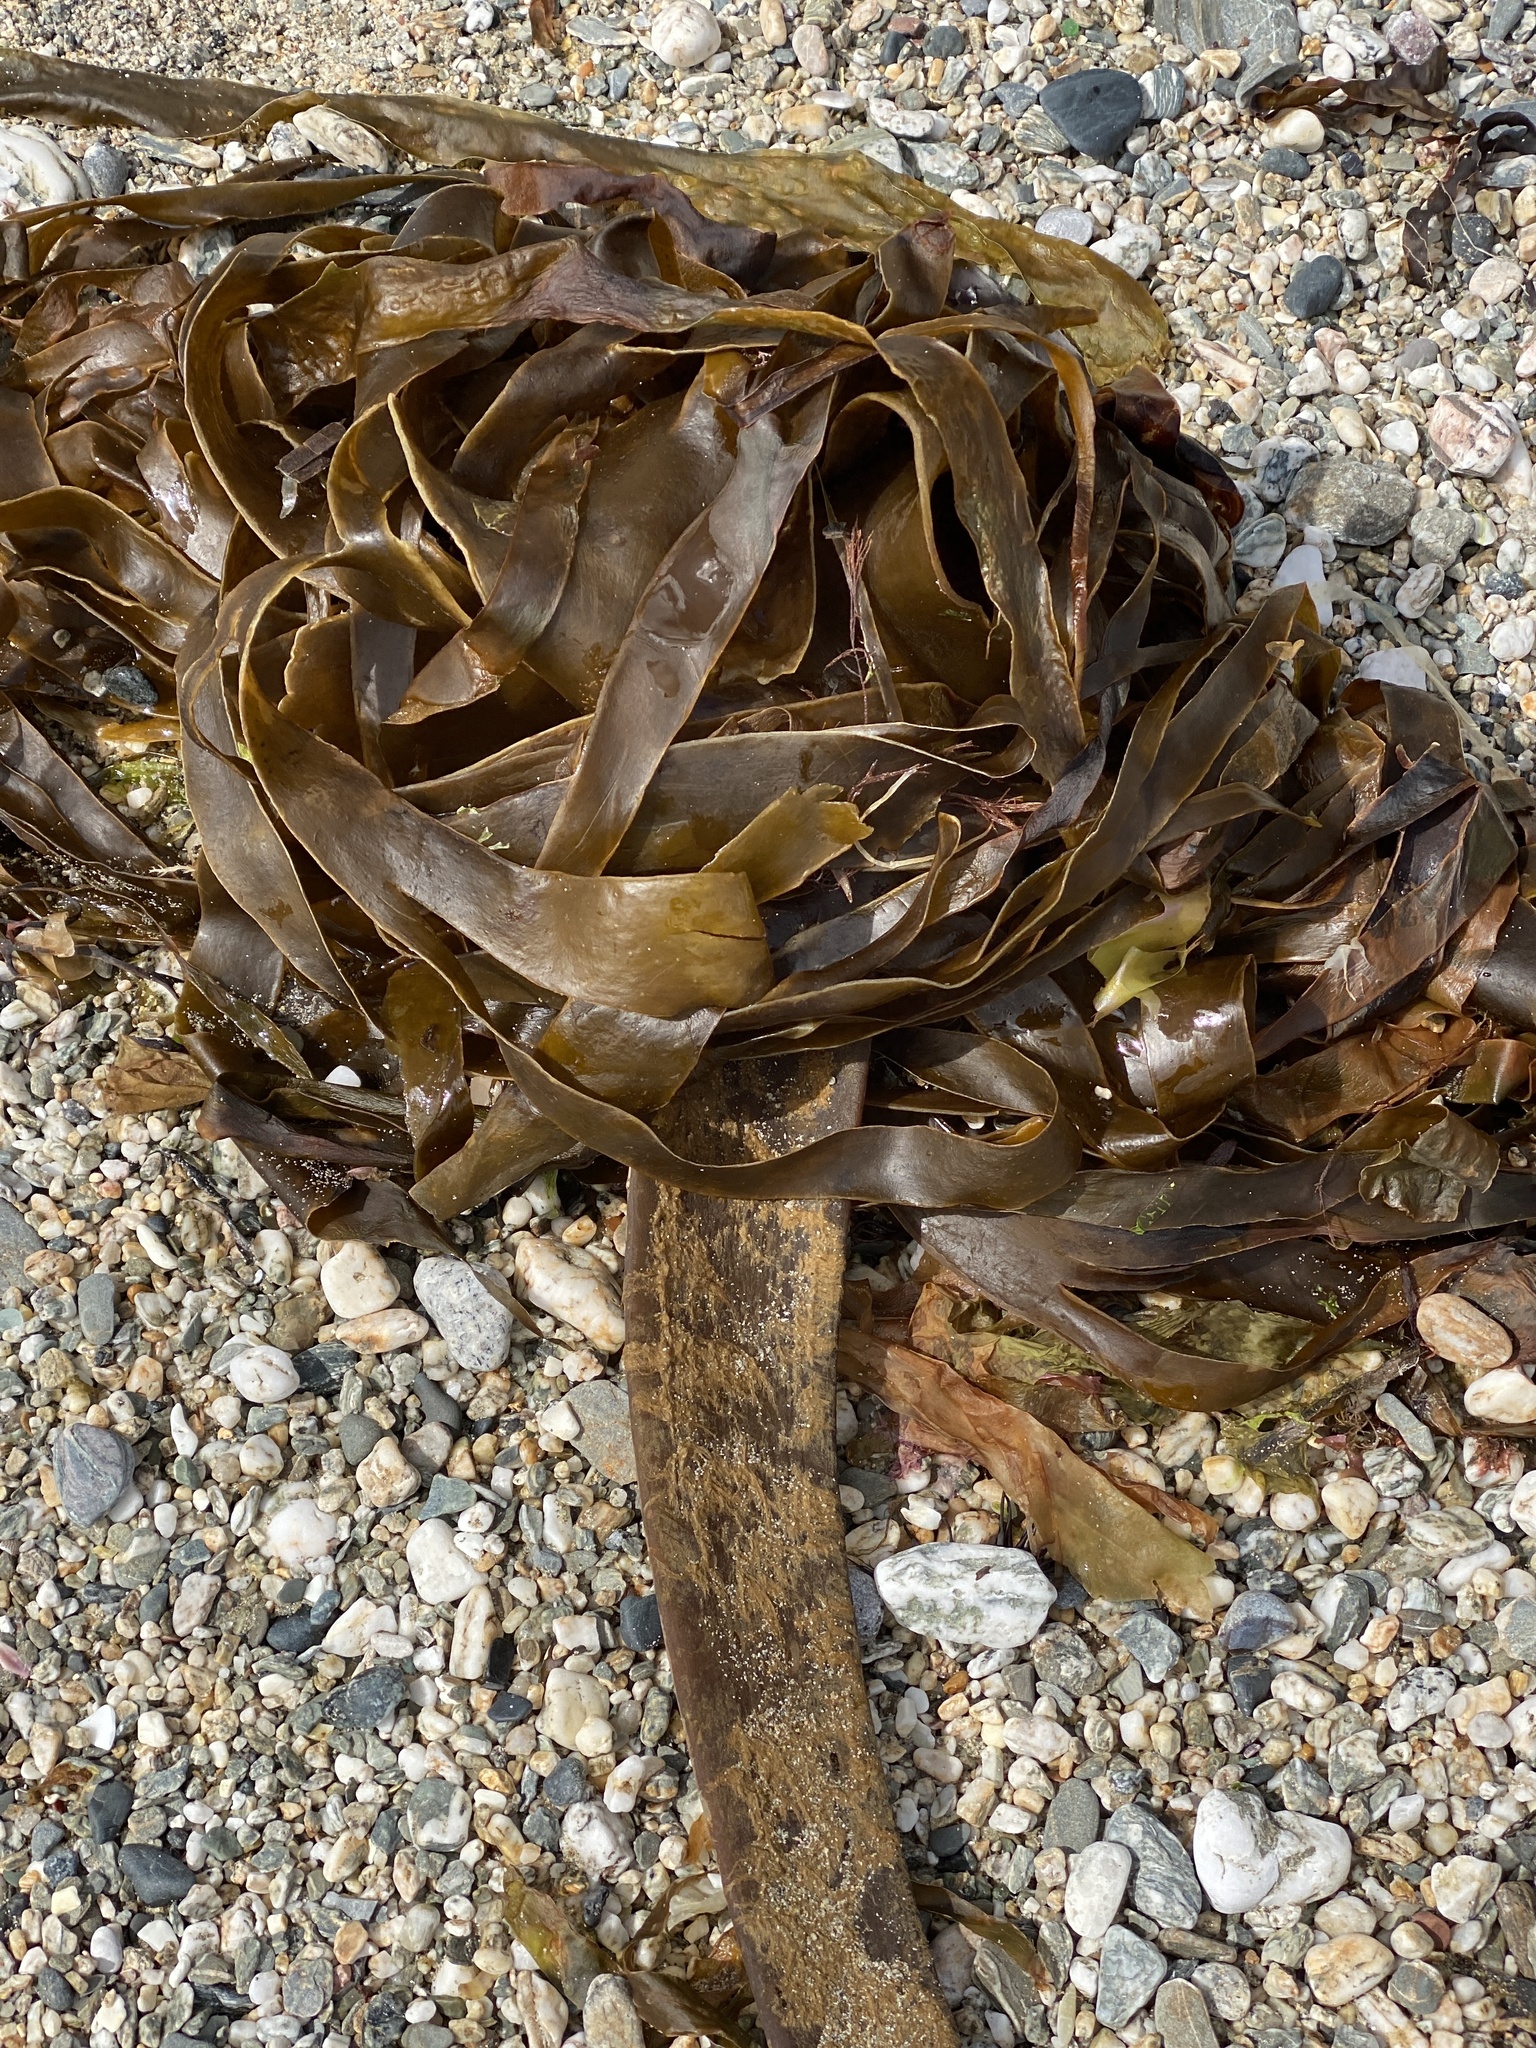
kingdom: Chromista
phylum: Ochrophyta
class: Phaeophyceae
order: Tilopteridales
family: Phyllariaceae
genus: Saccorhiza
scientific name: Saccorhiza polyschides
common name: Furbelows
